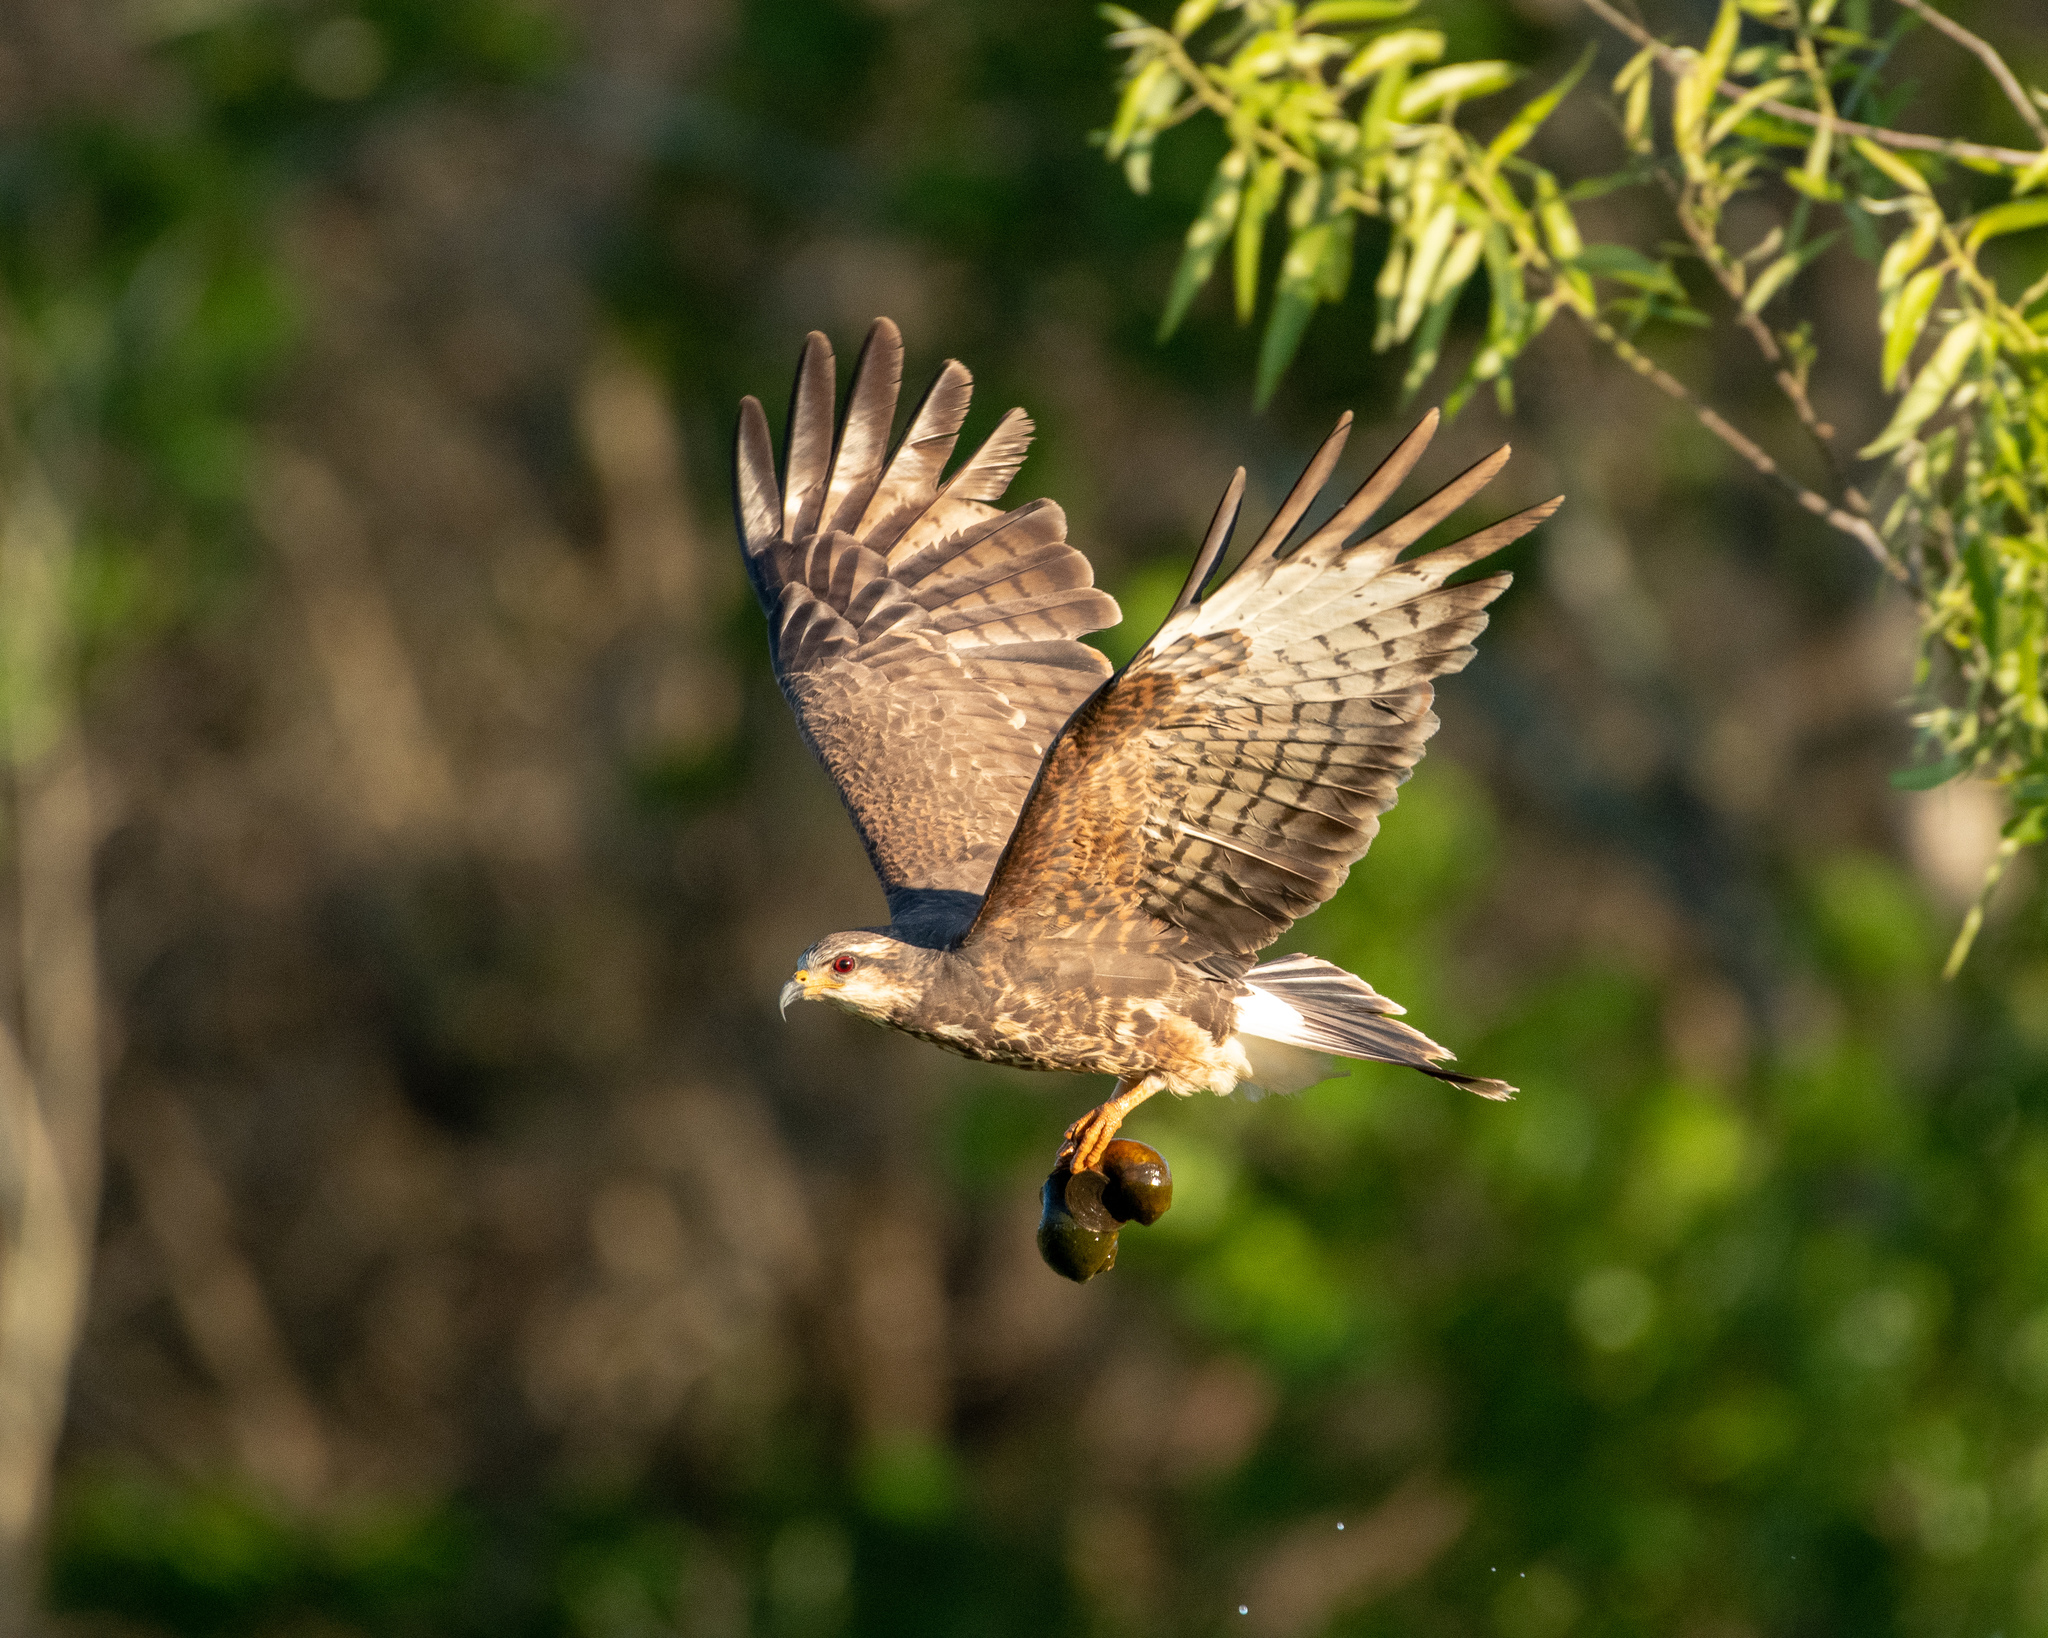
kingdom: Animalia
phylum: Chordata
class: Aves
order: Accipitriformes
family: Accipitridae
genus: Rostrhamus
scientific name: Rostrhamus sociabilis
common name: Snail kite
